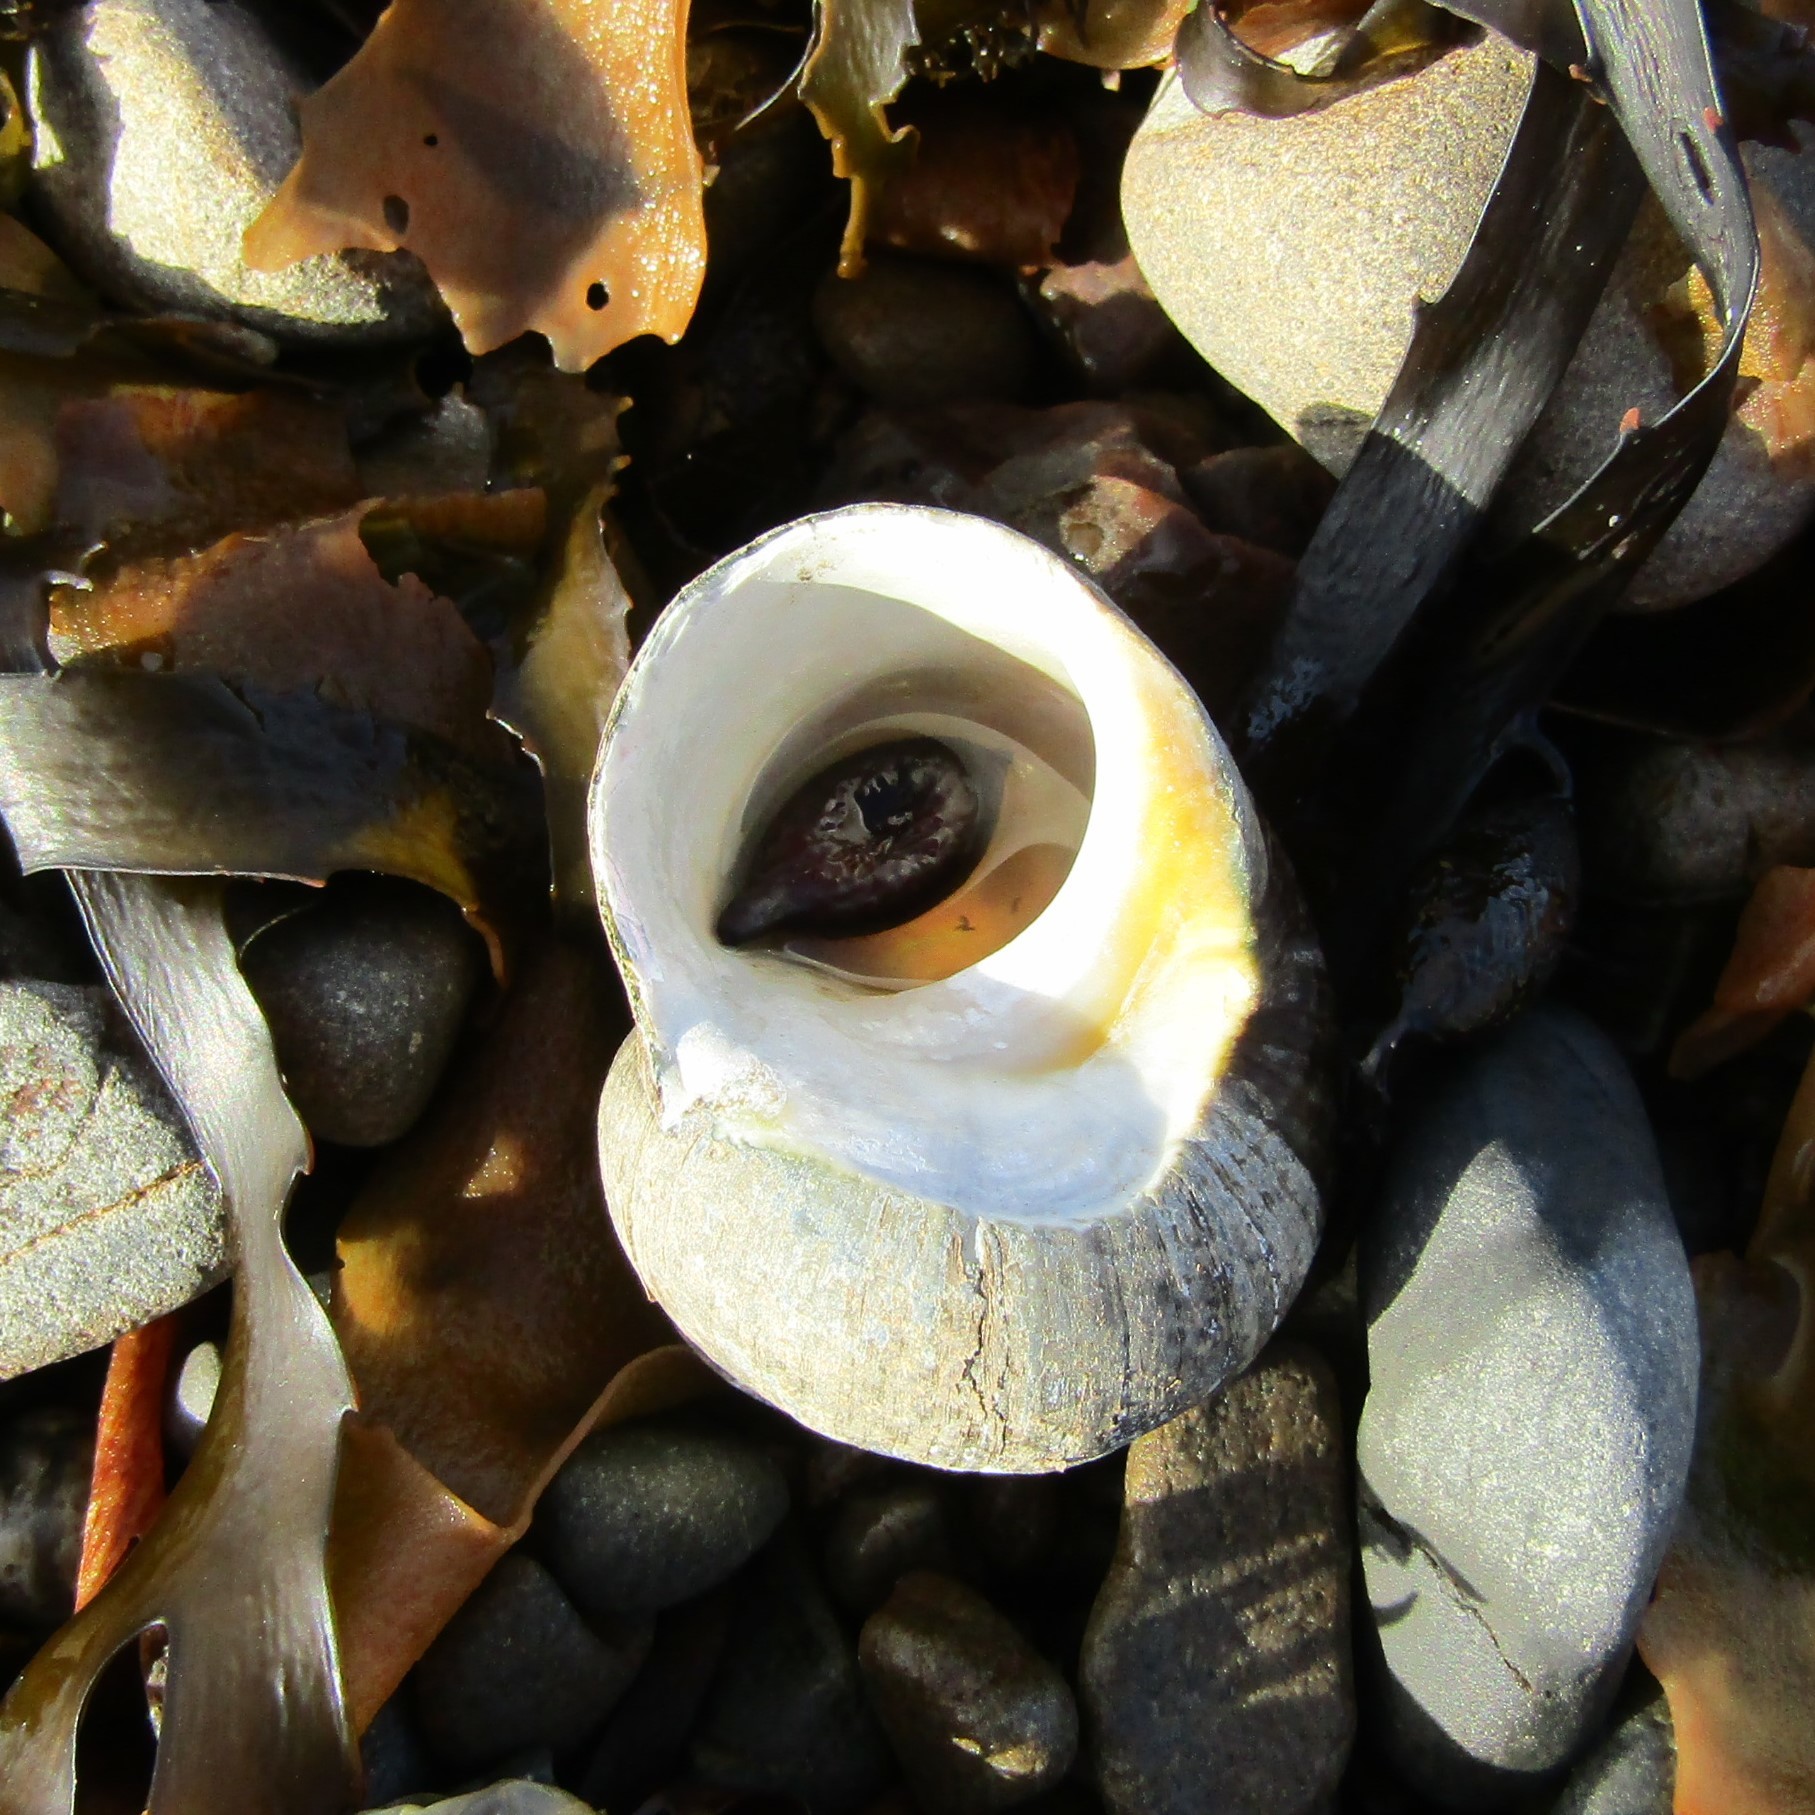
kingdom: Animalia
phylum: Mollusca
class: Gastropoda
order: Trochida
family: Turbinidae
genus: Lunella
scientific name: Lunella smaragda
